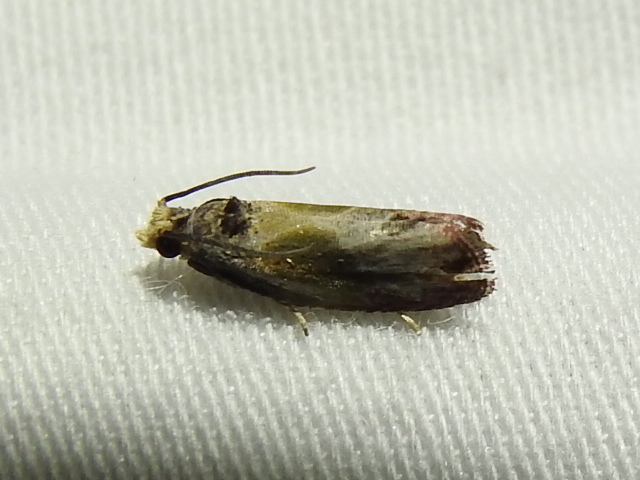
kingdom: Animalia
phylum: Arthropoda
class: Insecta
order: Lepidoptera
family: Tortricidae
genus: Eumarozia
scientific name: Eumarozia malachitana
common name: Sculptured moth
